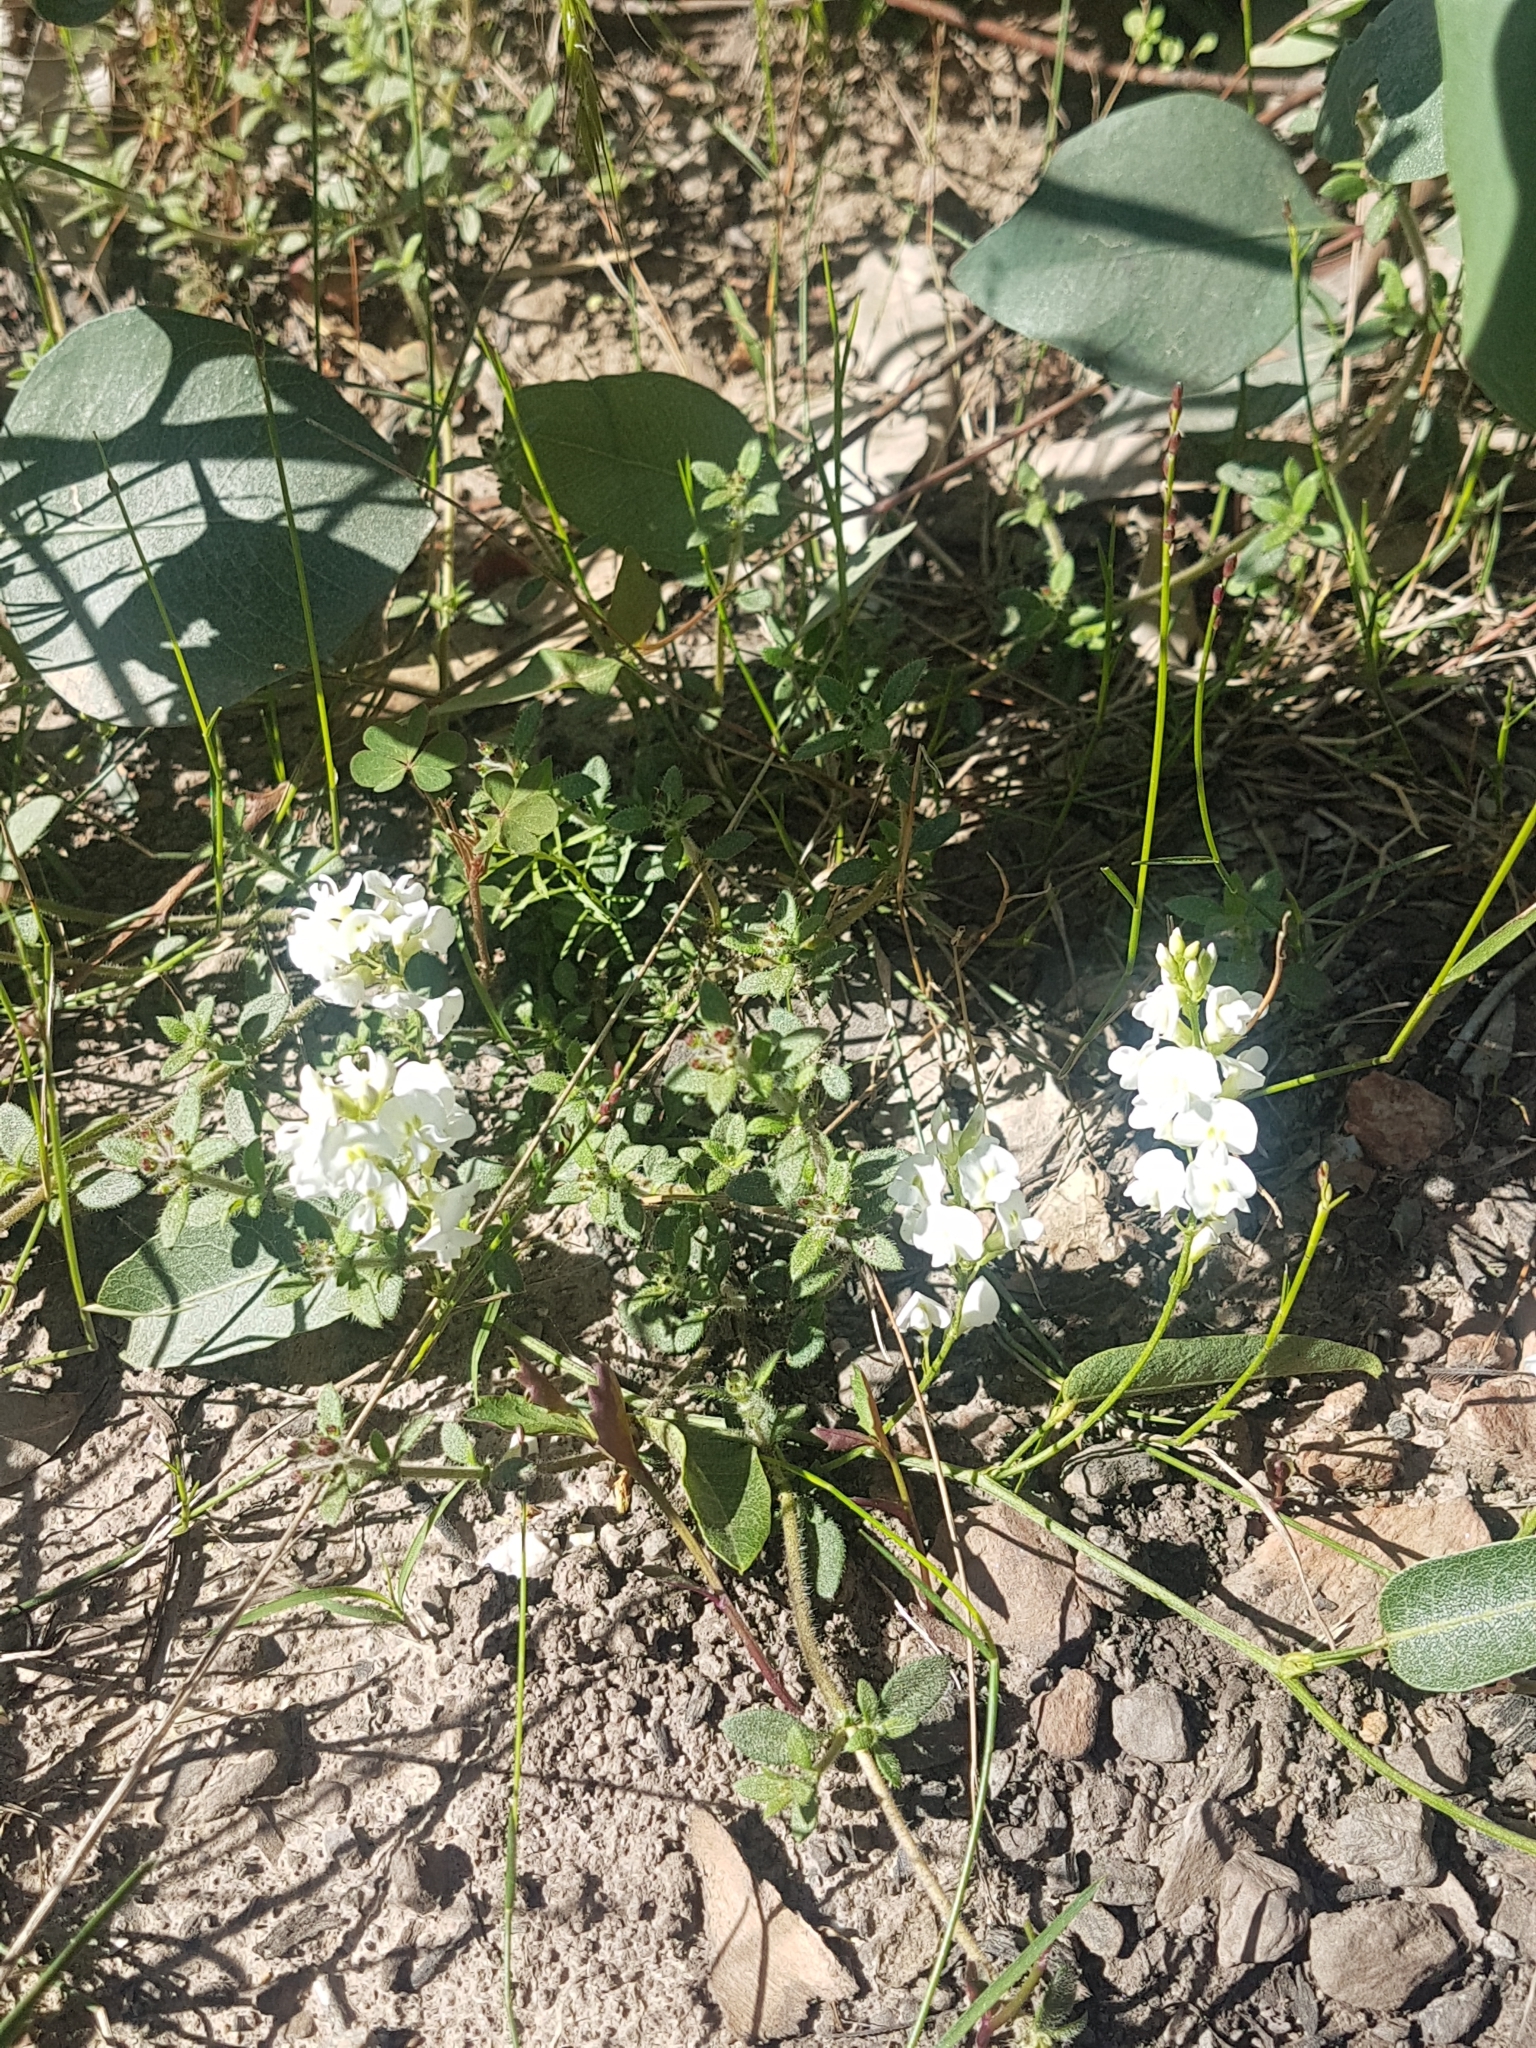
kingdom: Plantae
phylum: Tracheophyta
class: Magnoliopsida
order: Fabales
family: Fabaceae
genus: Hardenbergia
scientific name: Hardenbergia violacea
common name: Coral-pea
